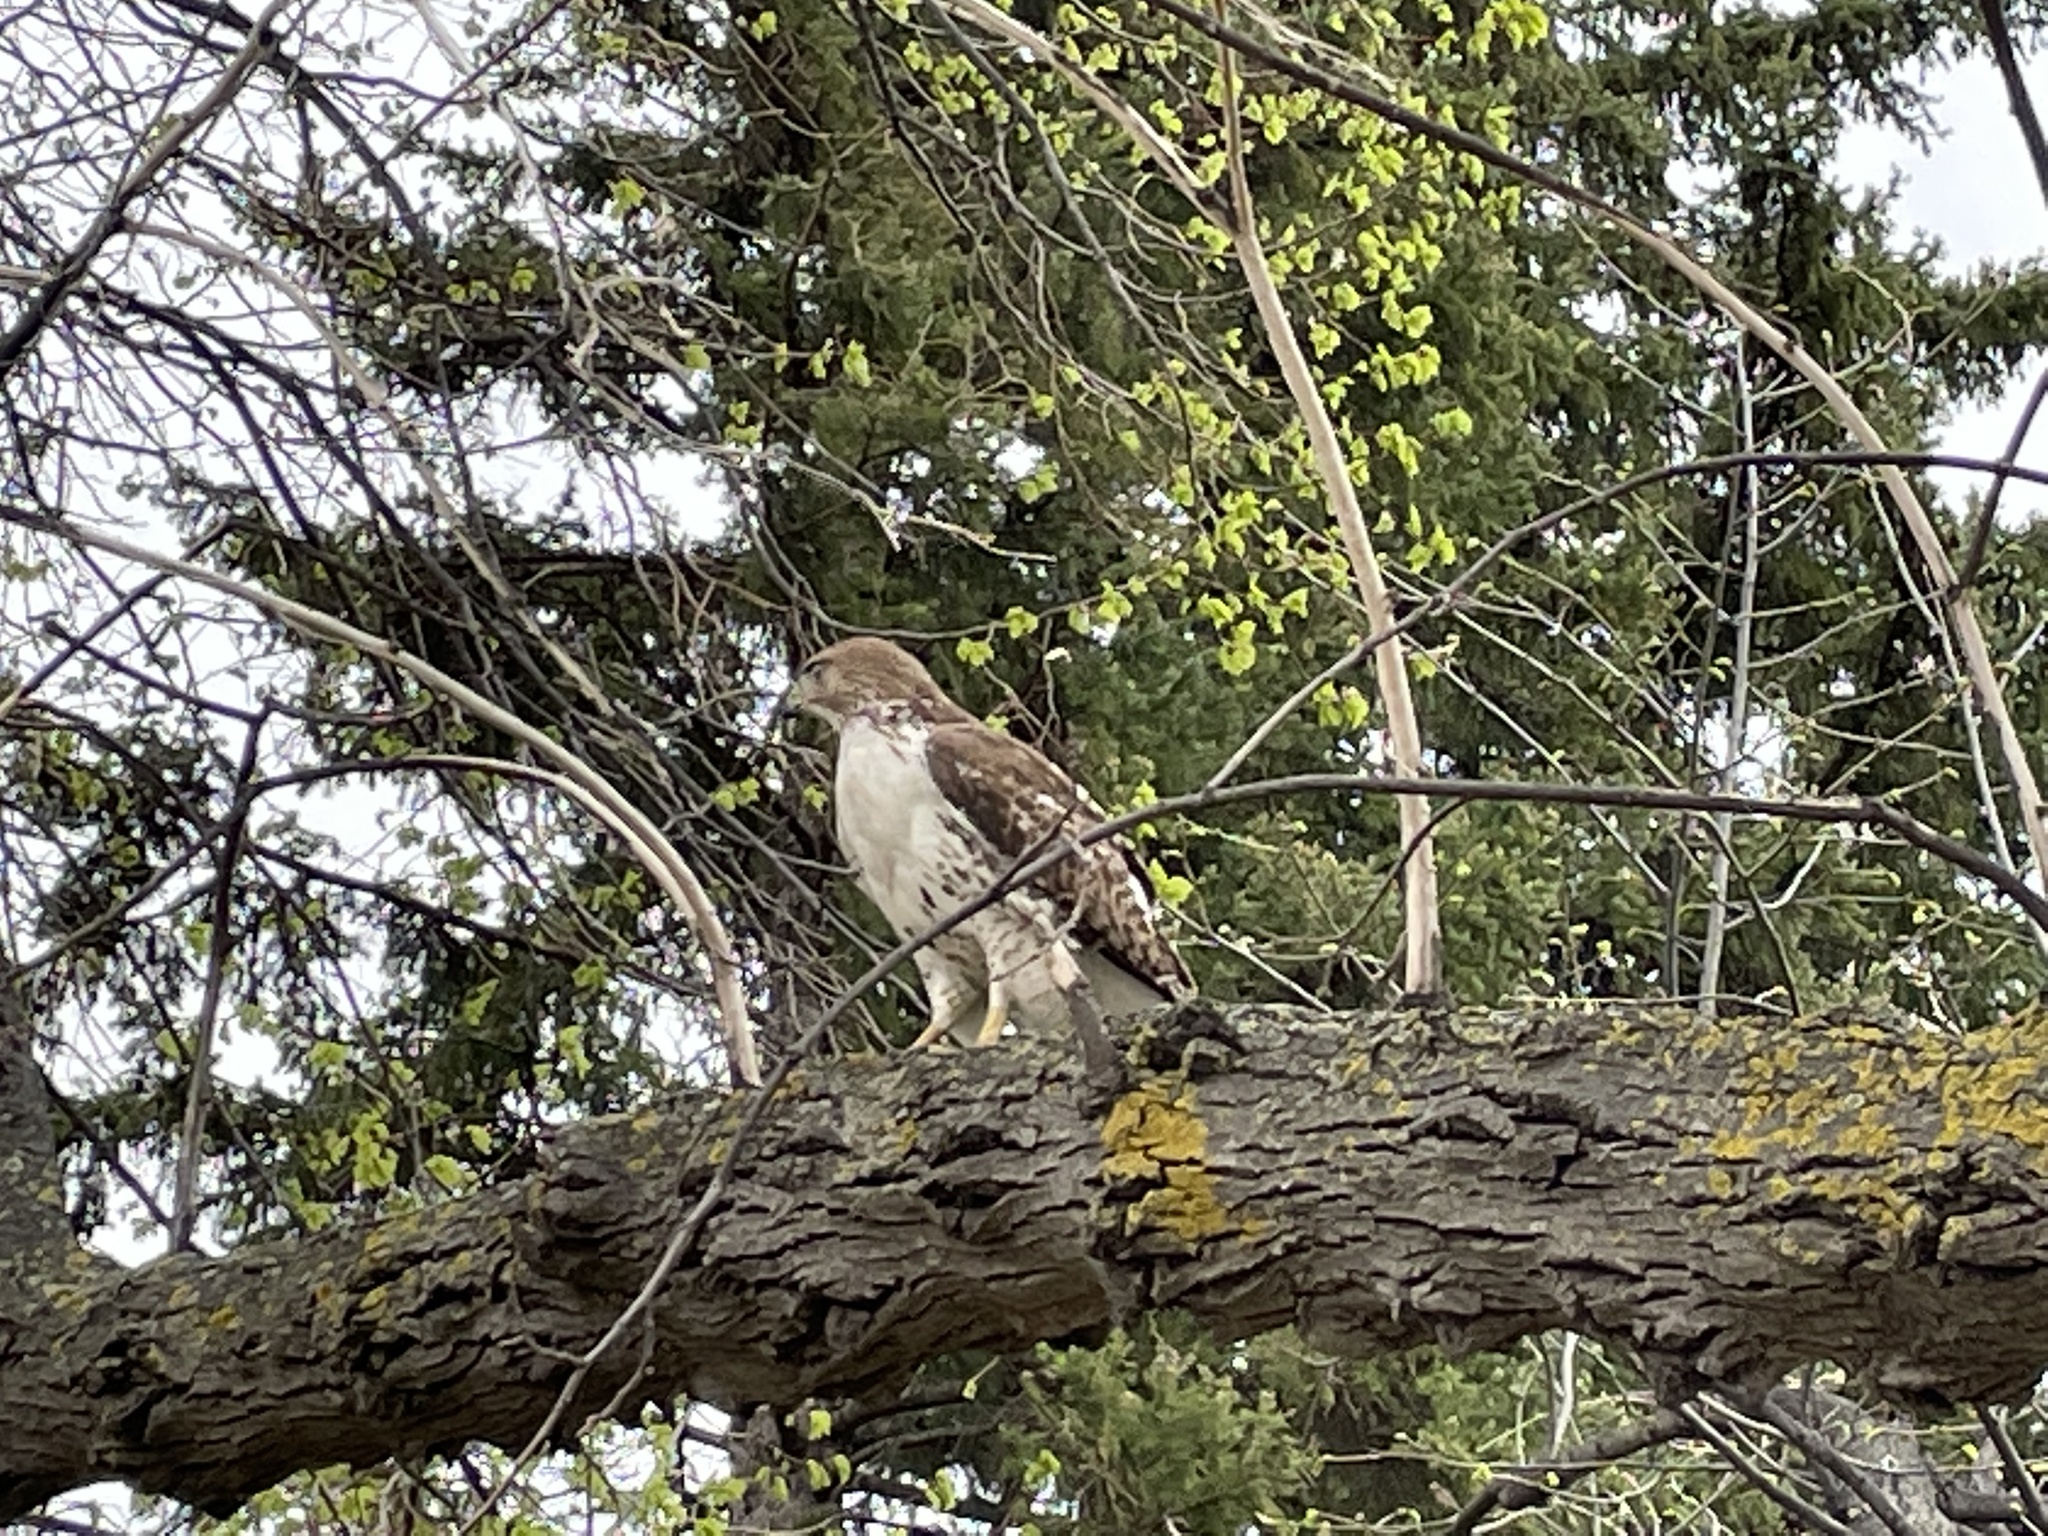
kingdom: Animalia
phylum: Chordata
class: Aves
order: Accipitriformes
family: Accipitridae
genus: Buteo
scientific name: Buteo jamaicensis
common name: Red-tailed hawk
